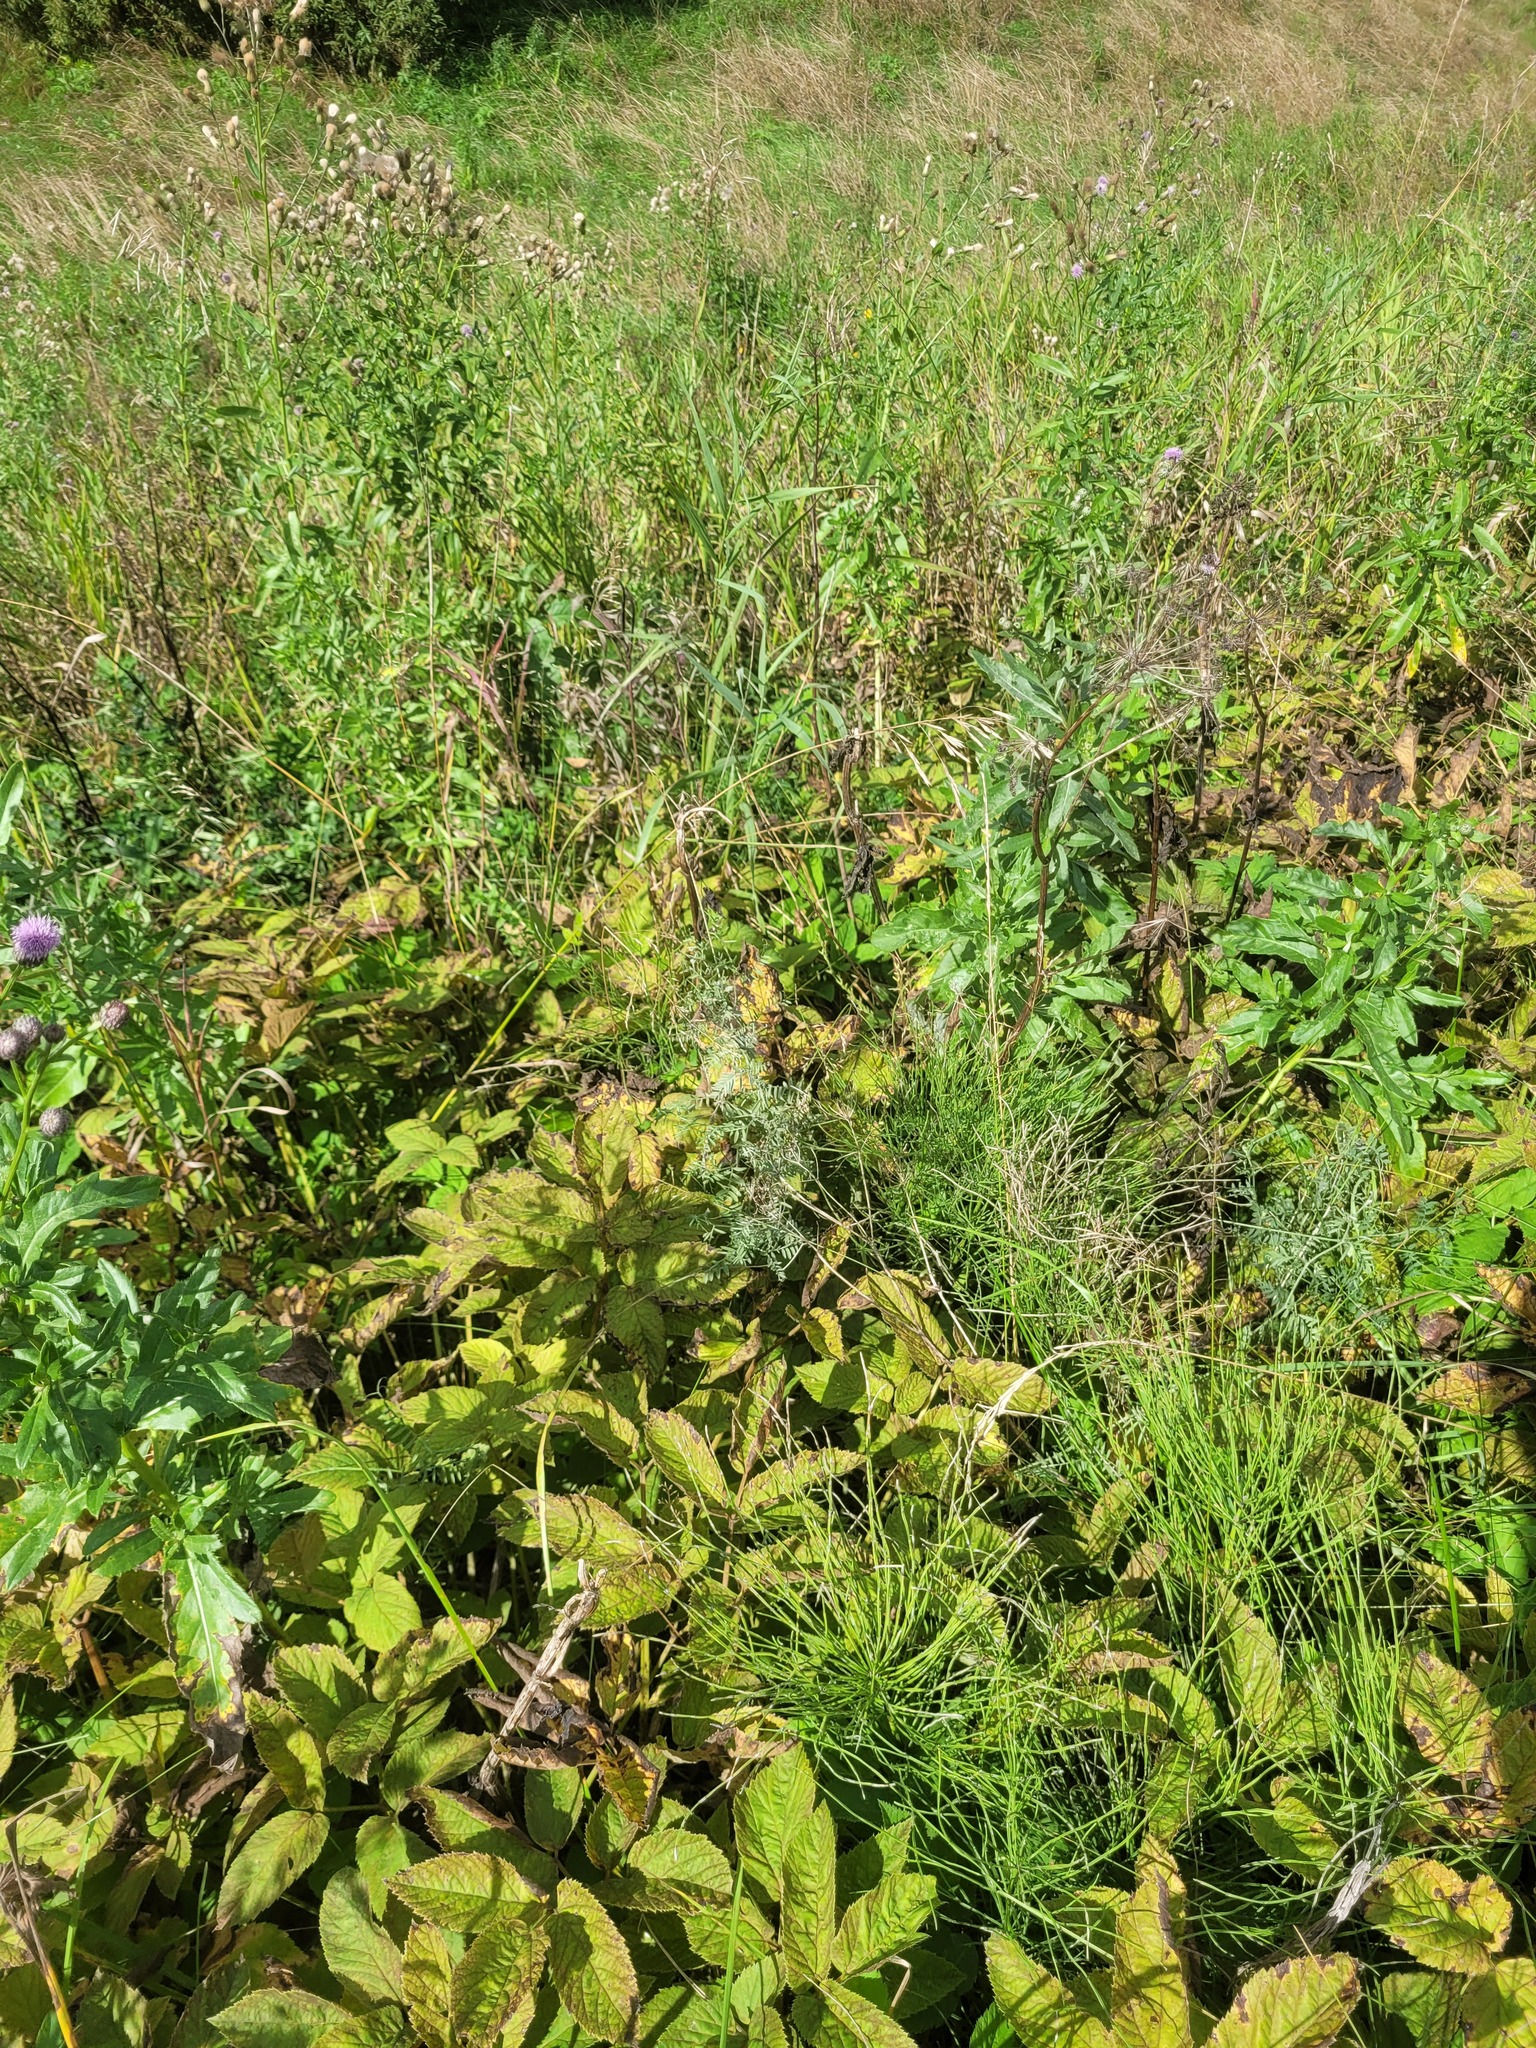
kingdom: Plantae
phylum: Tracheophyta
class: Liliopsida
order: Poales
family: Poaceae
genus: Bromus
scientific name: Bromus inermis
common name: Smooth brome
